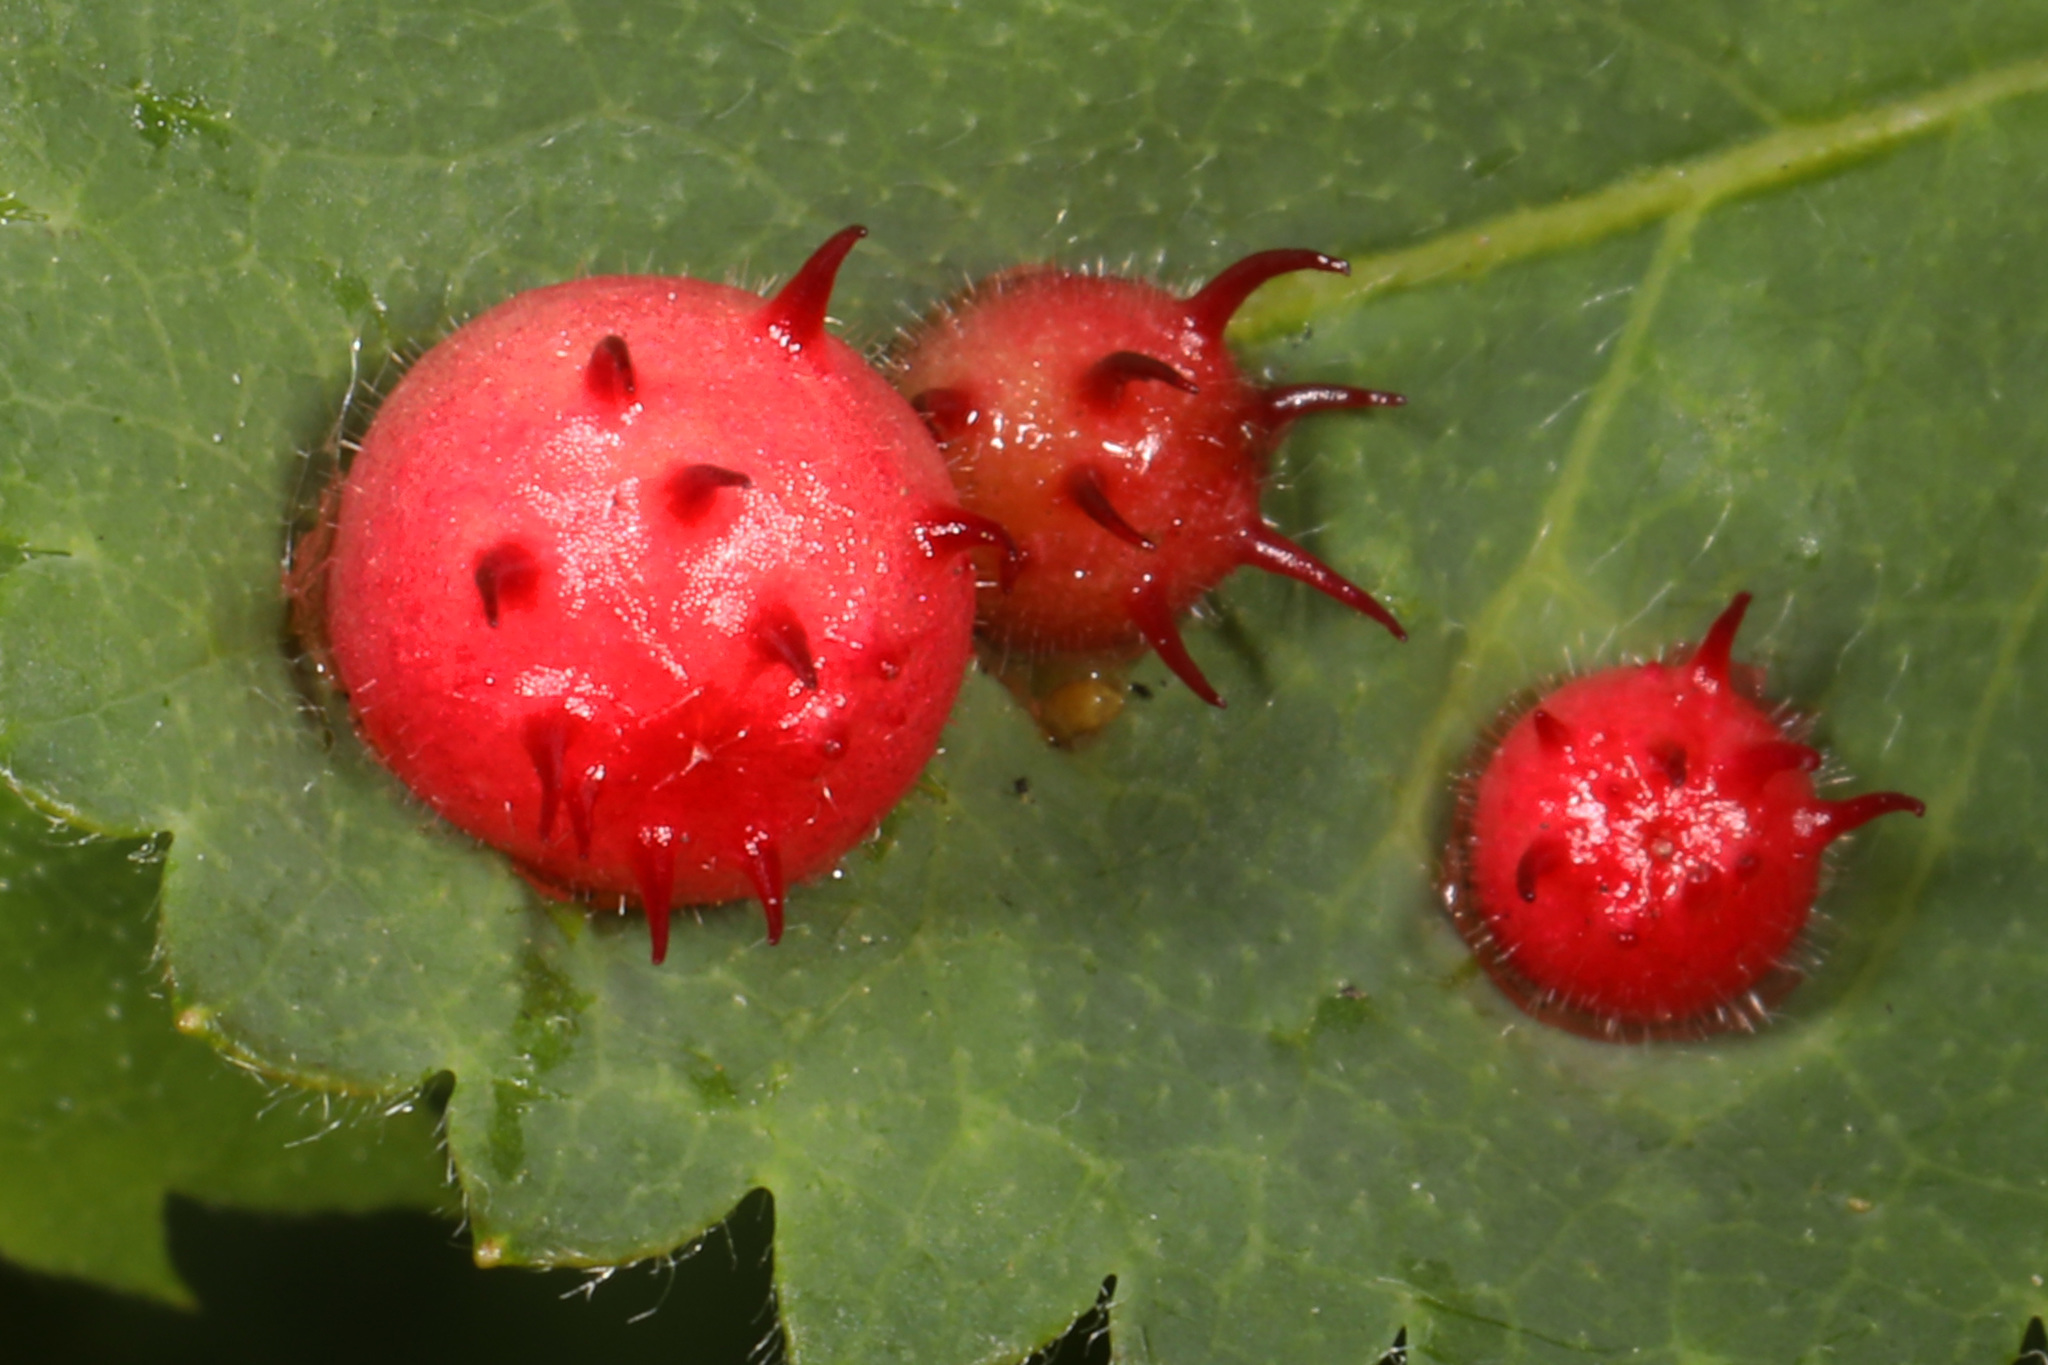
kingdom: Animalia
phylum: Arthropoda
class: Insecta
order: Hymenoptera
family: Cynipidae
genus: Diplolepis
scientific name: Diplolepis polita
